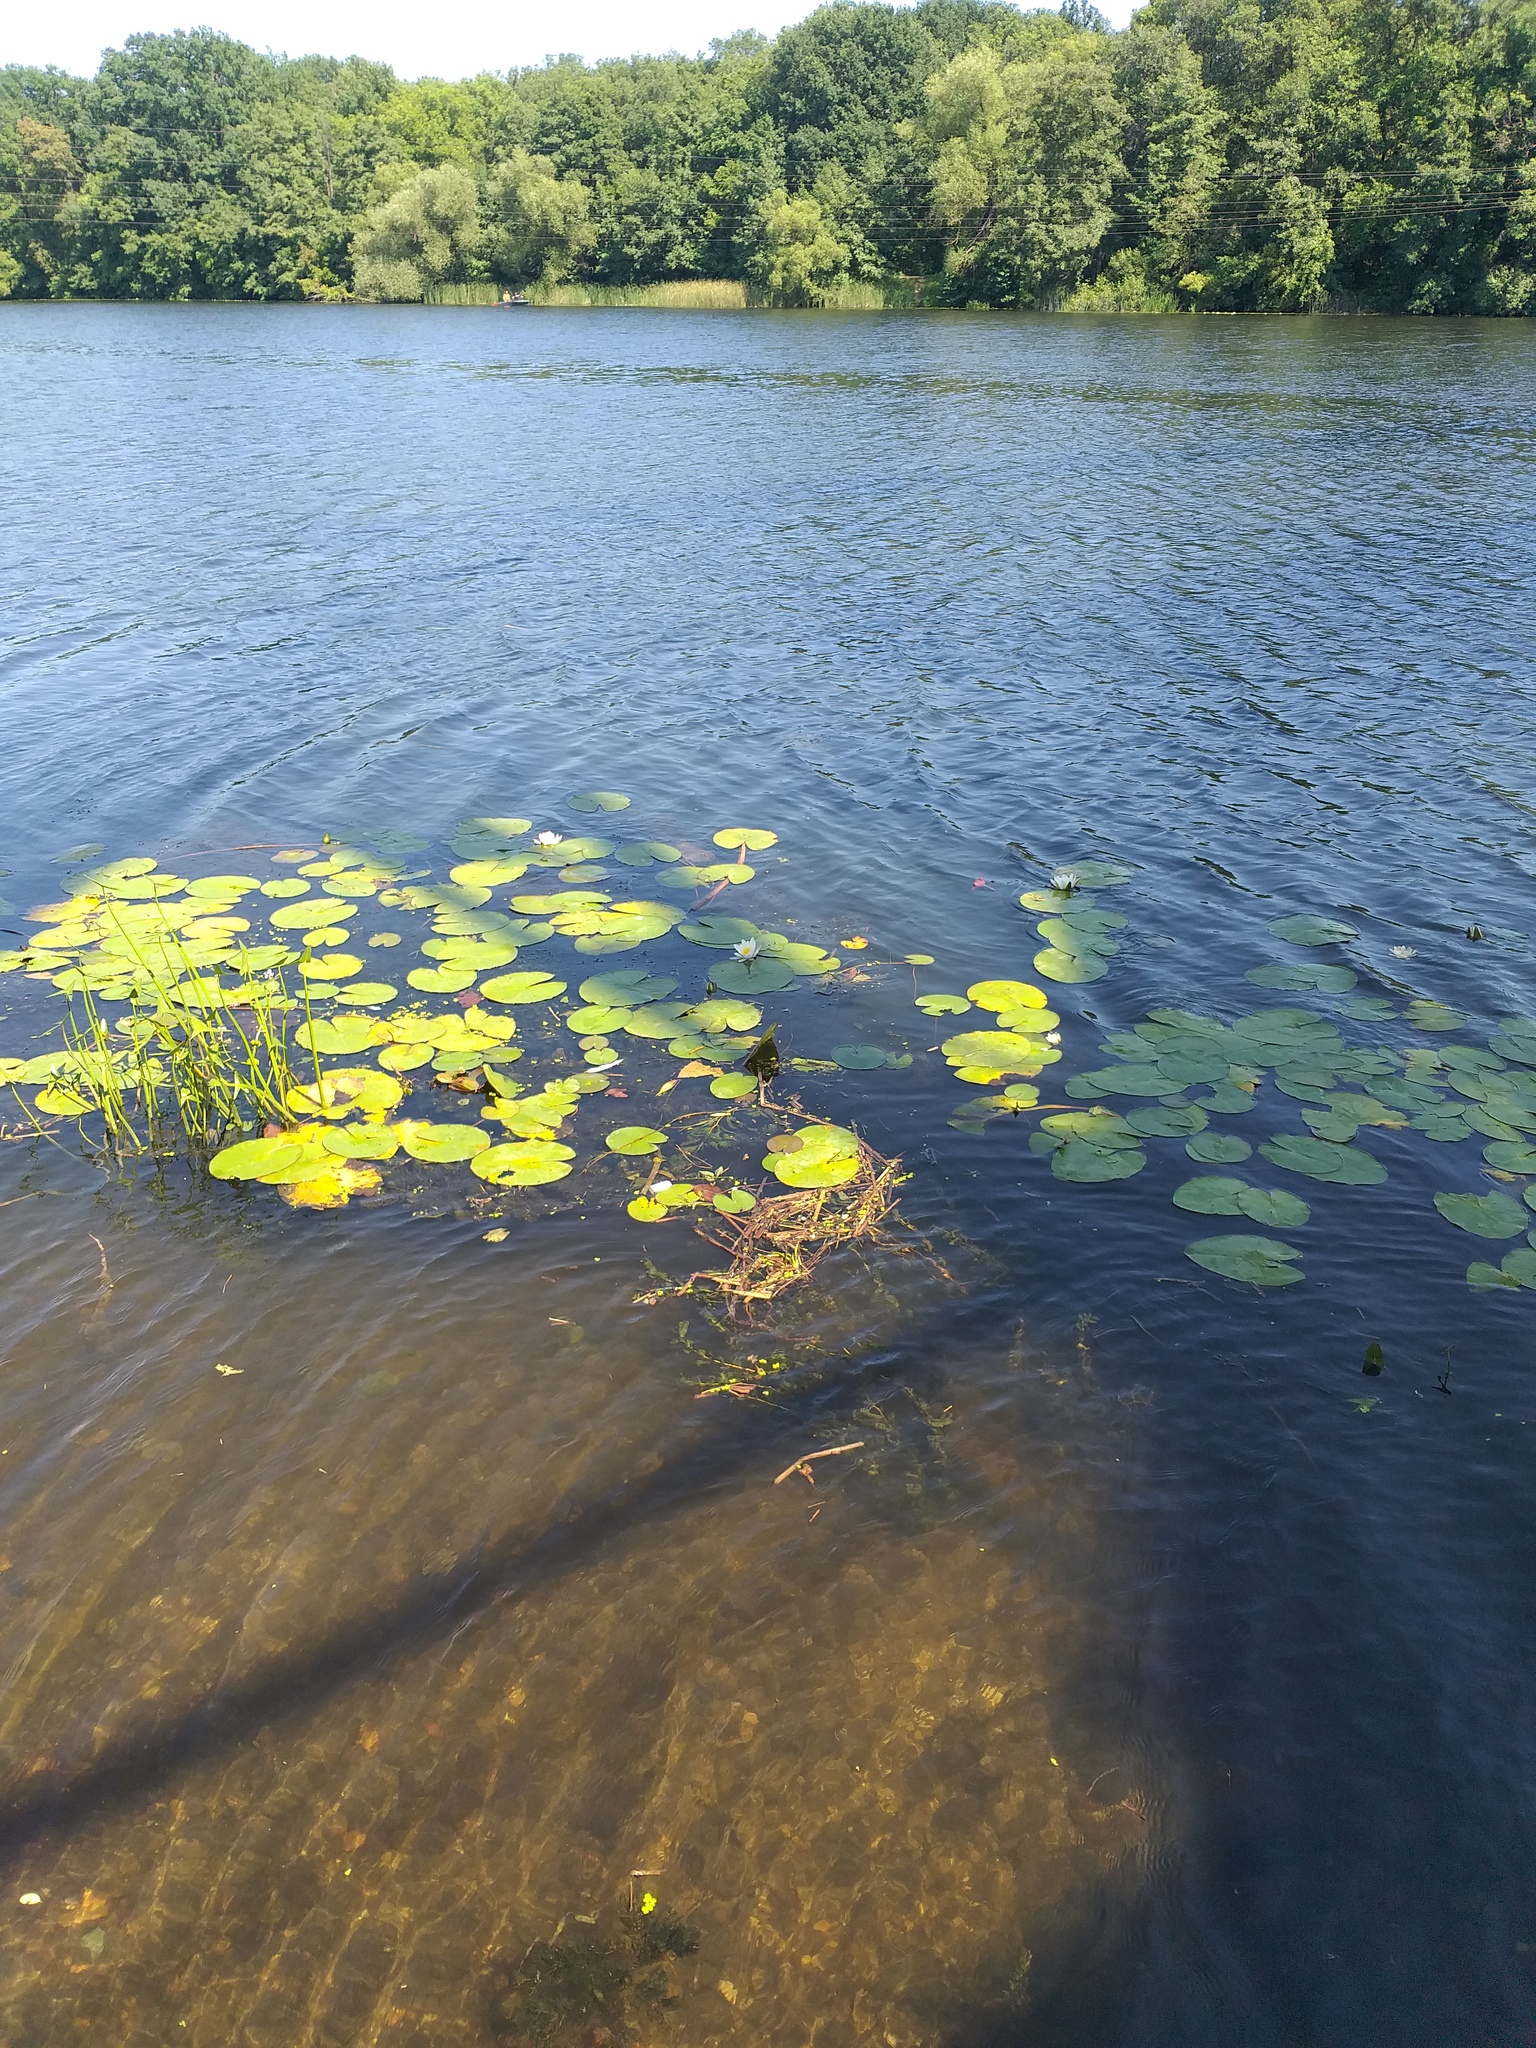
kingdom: Plantae
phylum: Tracheophyta
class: Magnoliopsida
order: Nymphaeales
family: Nymphaeaceae
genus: Nymphaea
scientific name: Nymphaea candida
